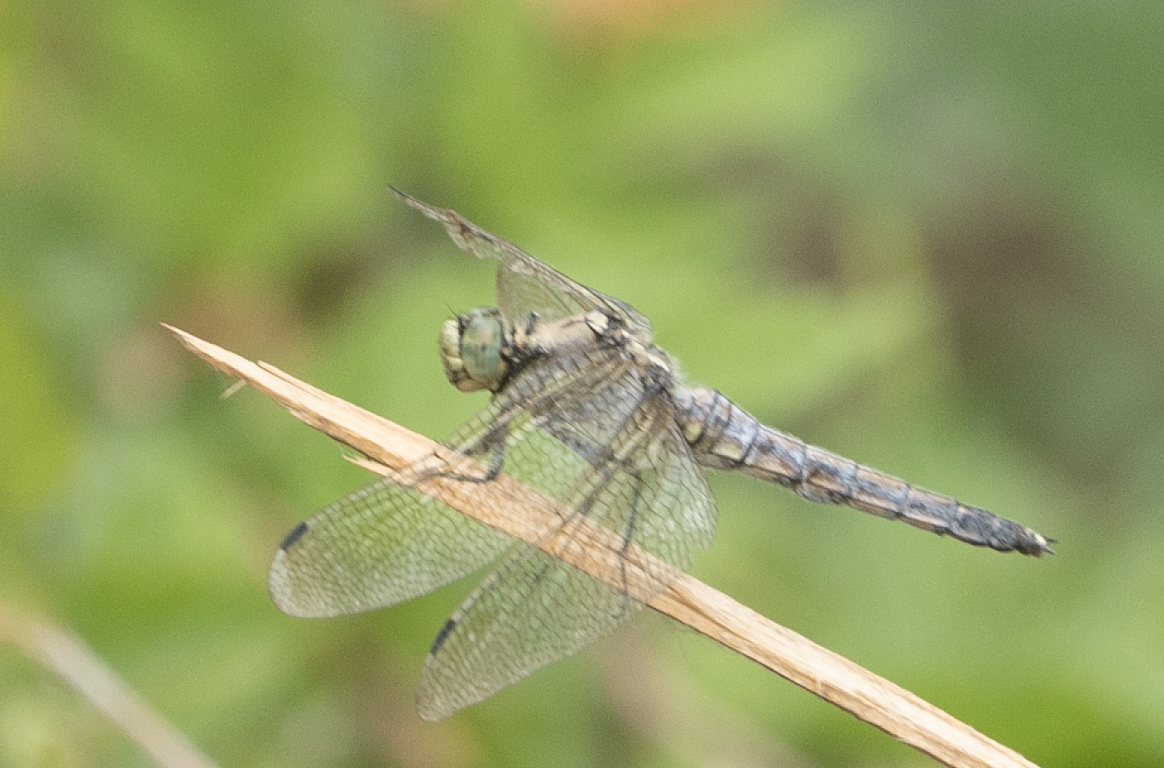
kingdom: Animalia
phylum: Arthropoda
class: Insecta
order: Odonata
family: Libellulidae
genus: Orthetrum
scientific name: Orthetrum cancellatum
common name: Black-tailed skimmer
